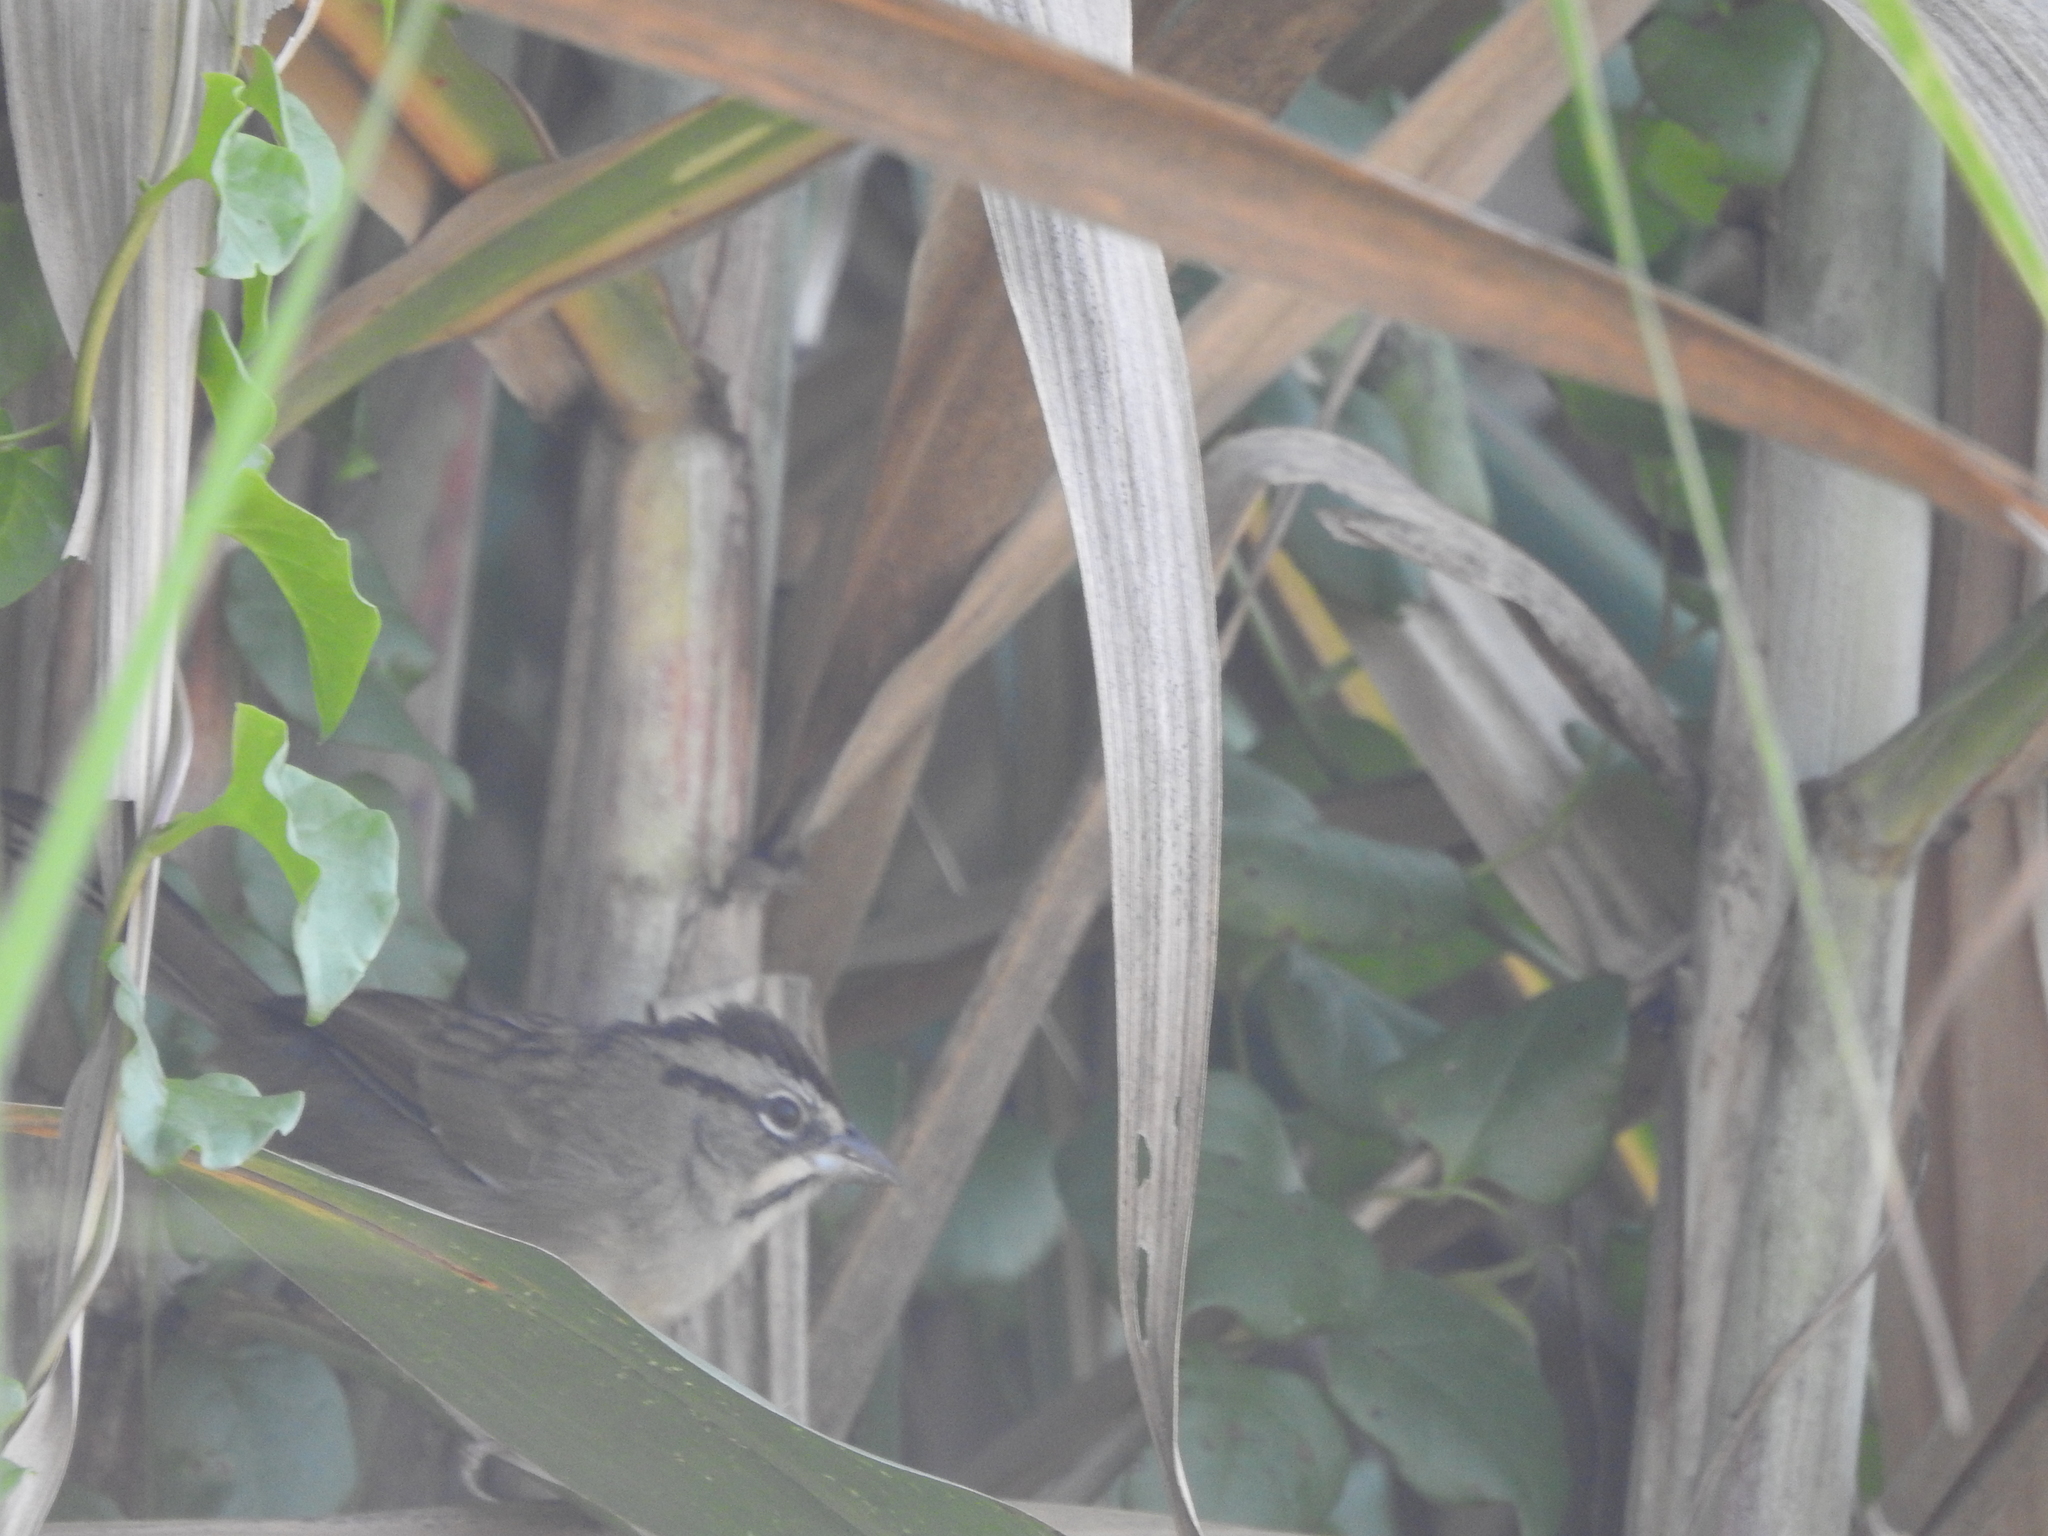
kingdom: Animalia
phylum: Chordata
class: Aves
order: Passeriformes
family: Passerellidae
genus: Aimophila
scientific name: Aimophila rufescens
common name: Rusty sparrow
